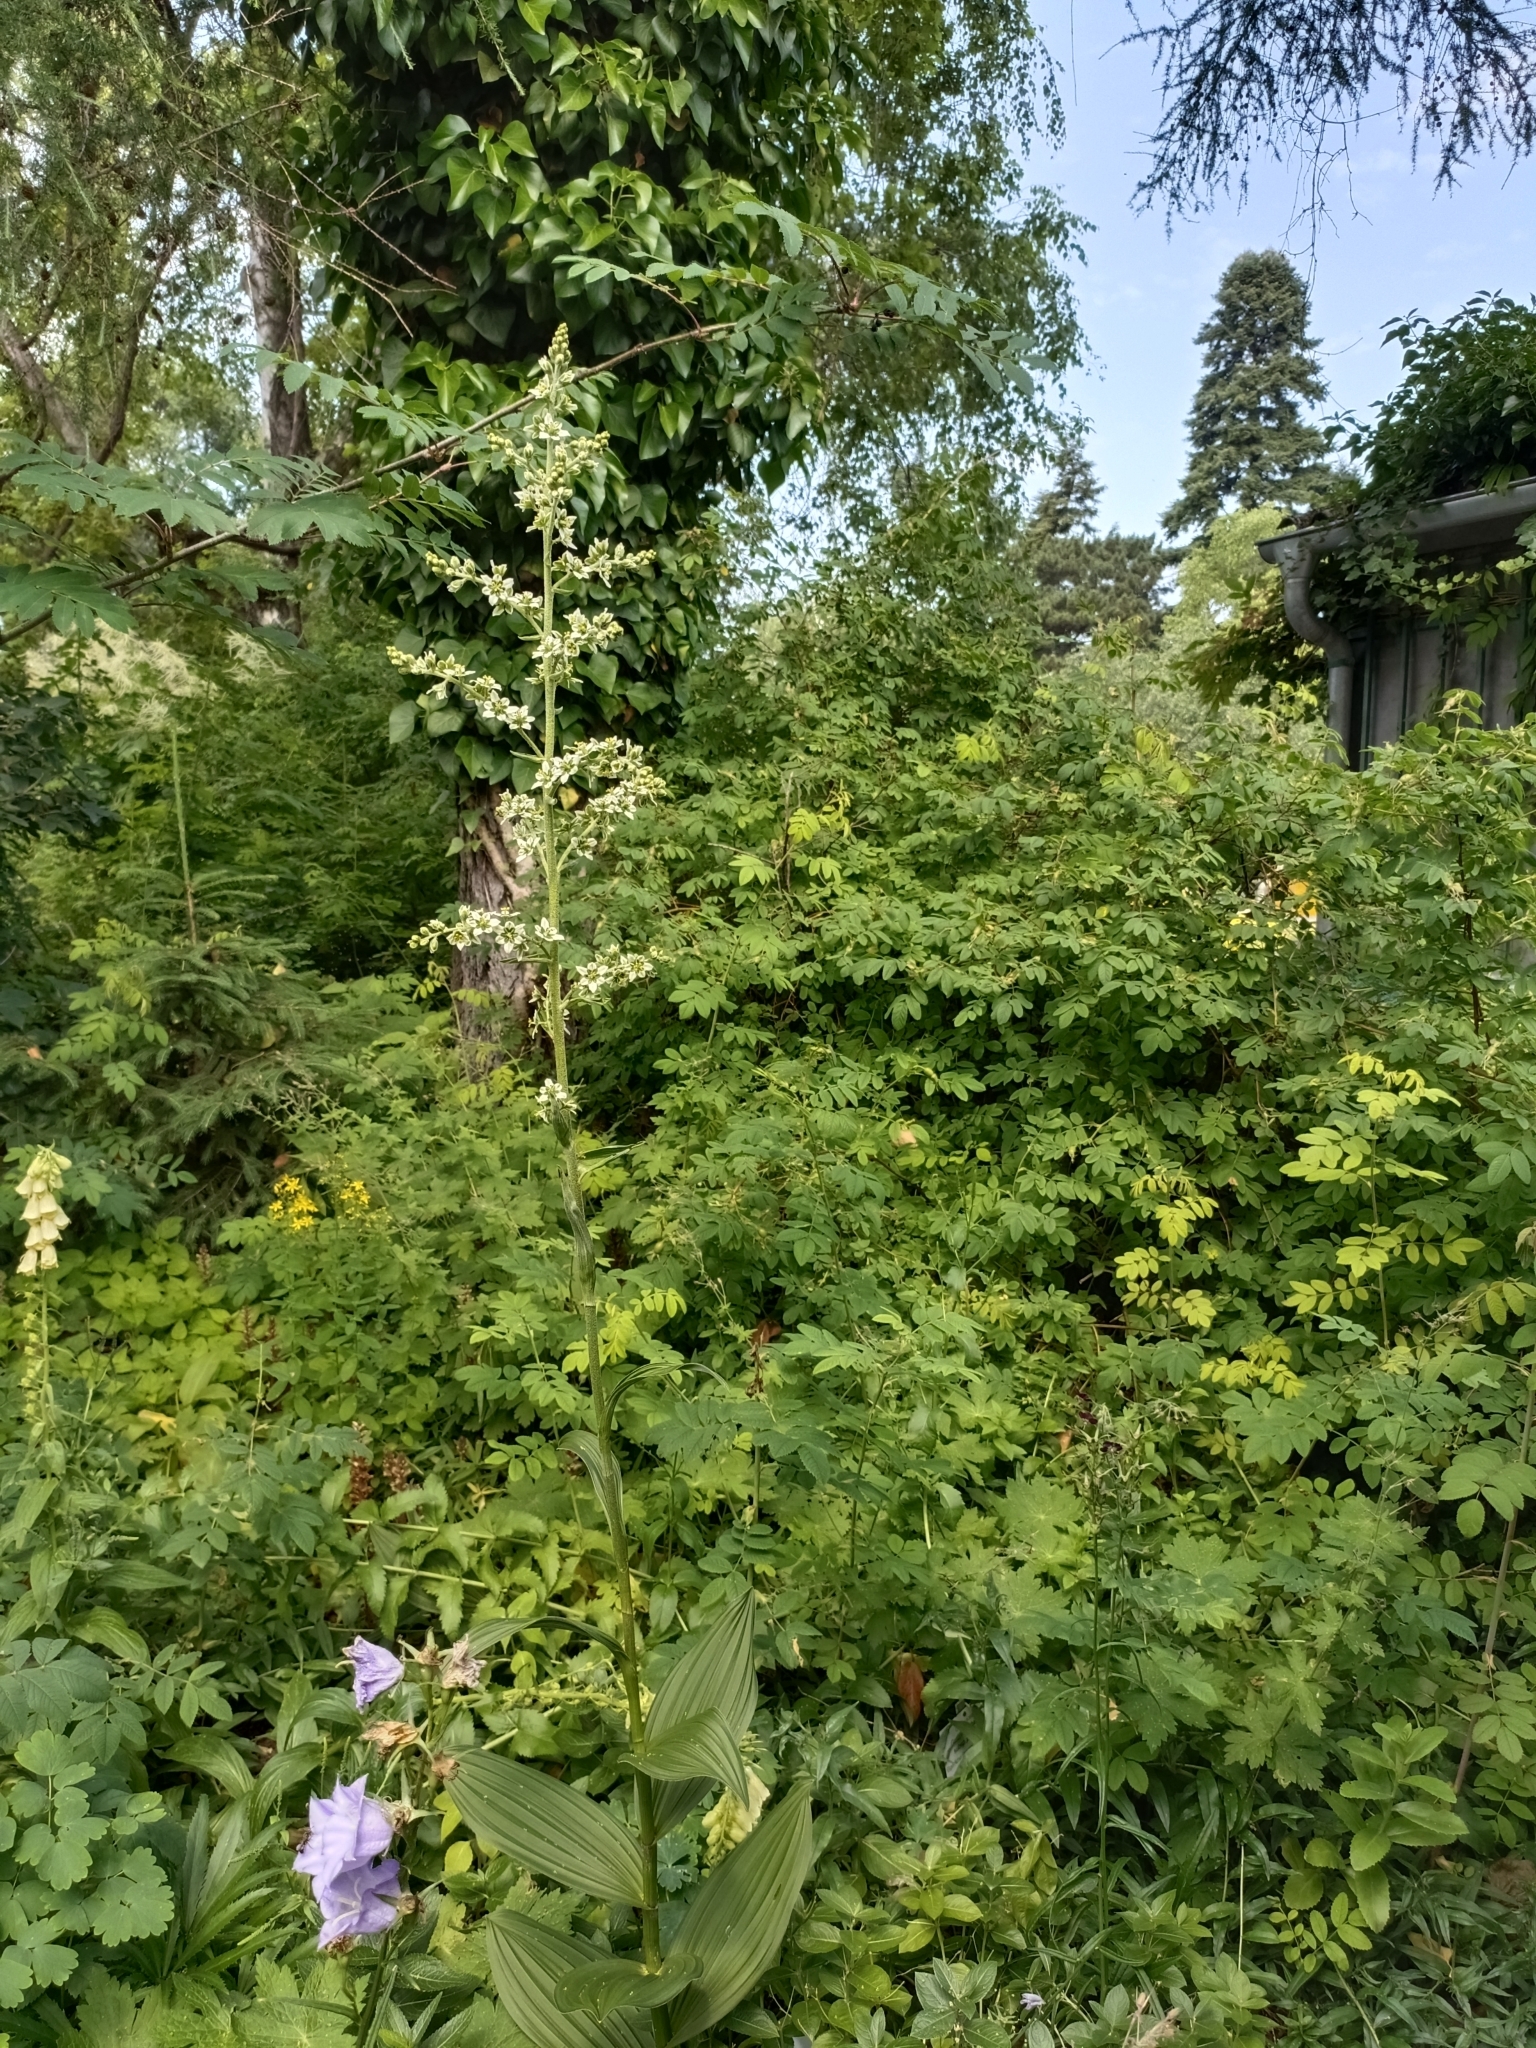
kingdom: Plantae
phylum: Tracheophyta
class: Liliopsida
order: Liliales
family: Melanthiaceae
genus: Veratrum
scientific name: Veratrum album
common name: White veratrum
